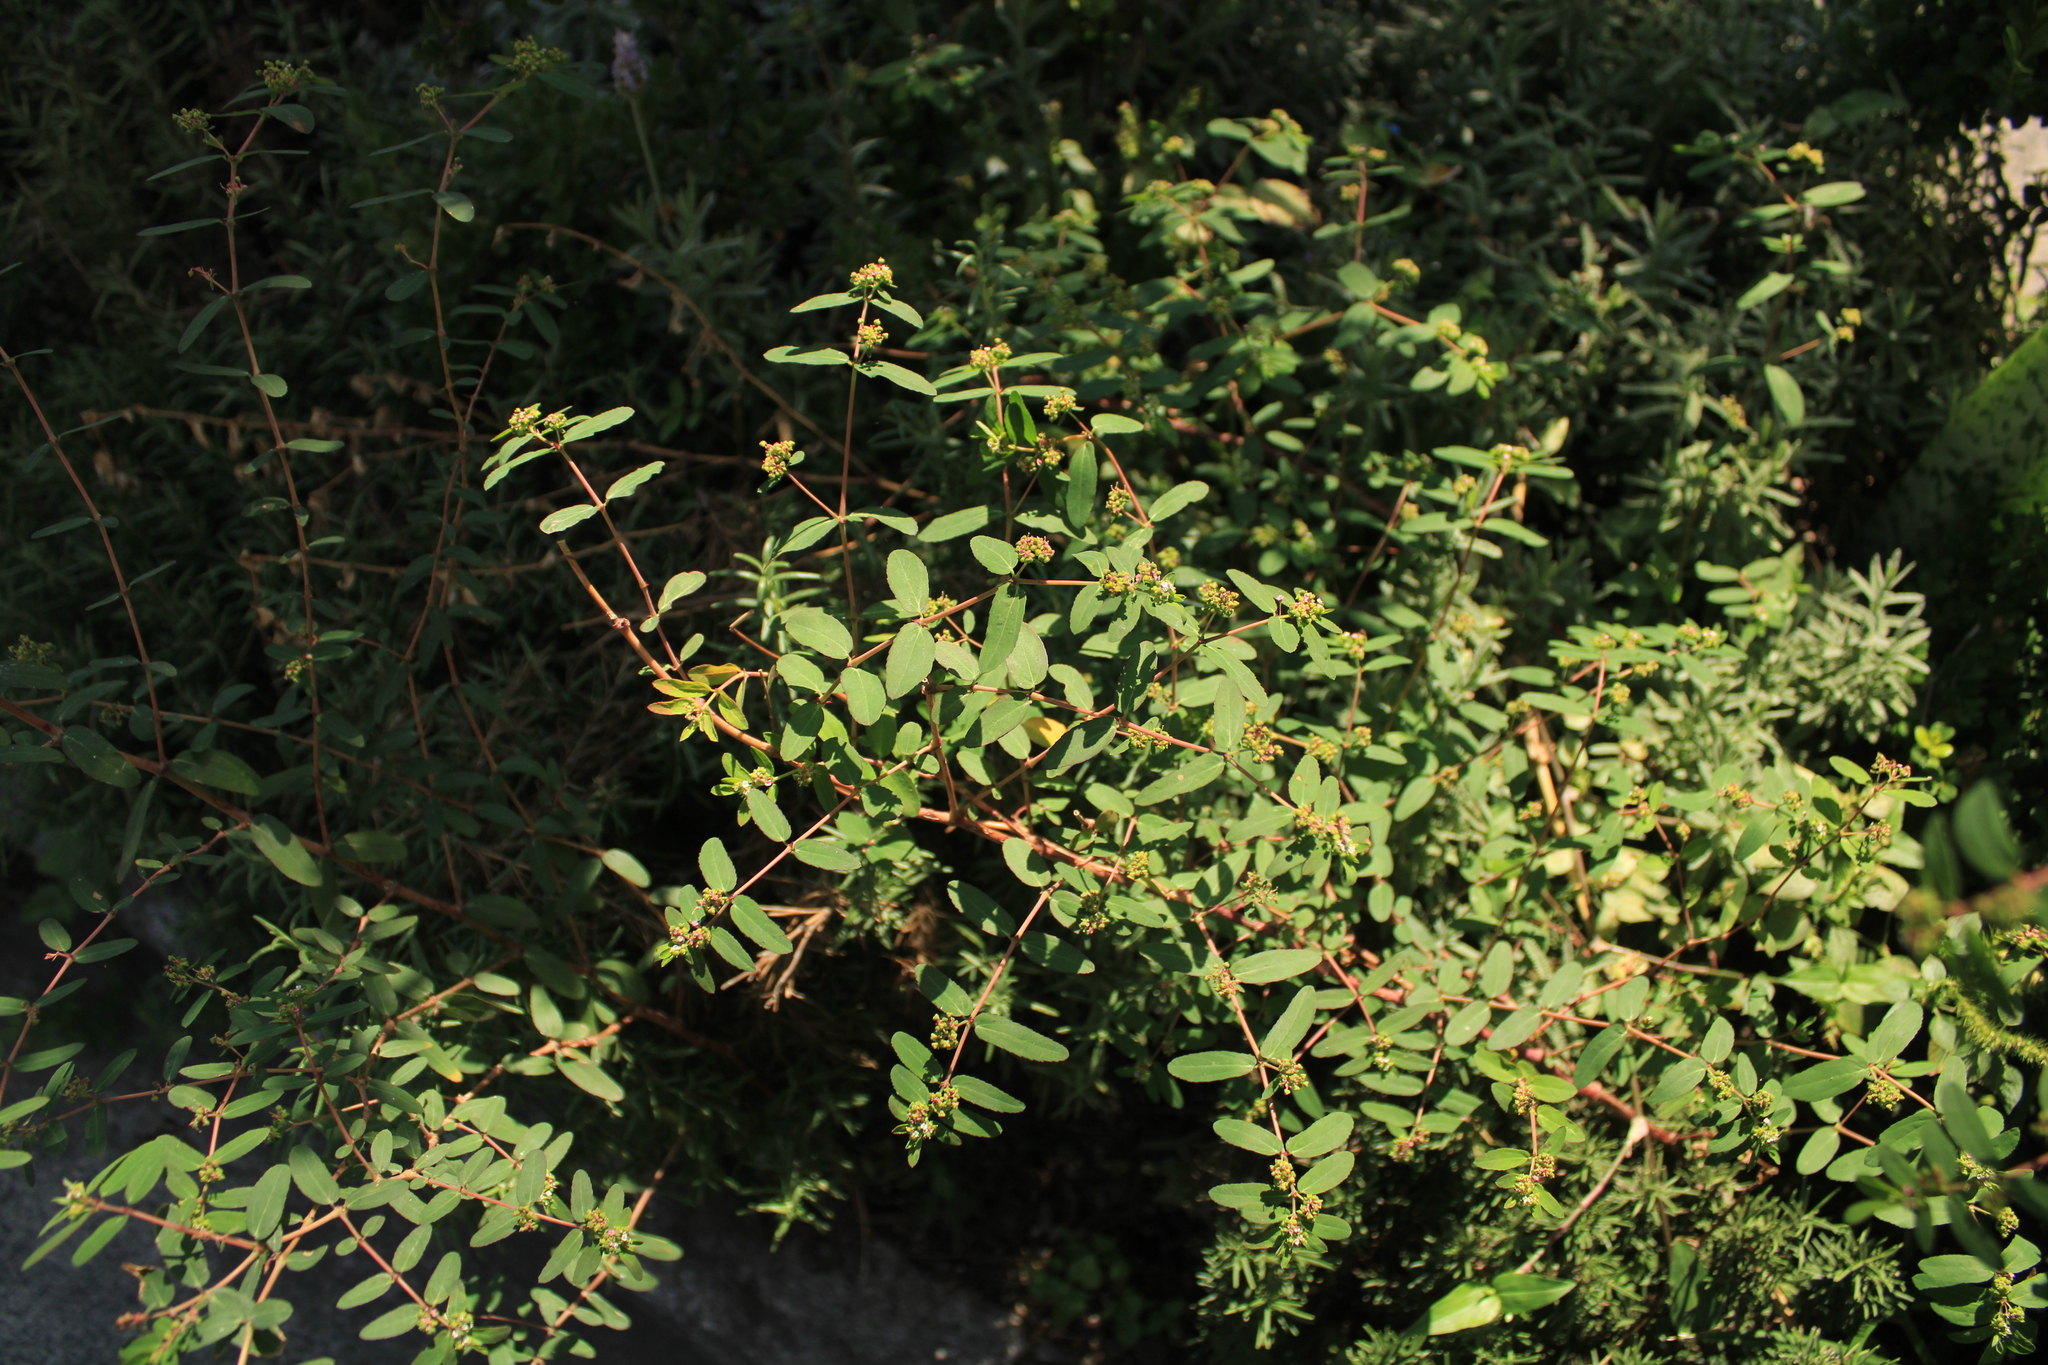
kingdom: Plantae
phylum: Tracheophyta
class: Magnoliopsida
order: Malpighiales
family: Euphorbiaceae
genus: Euphorbia
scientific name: Euphorbia hypericifolia
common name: Graceful sandmat
